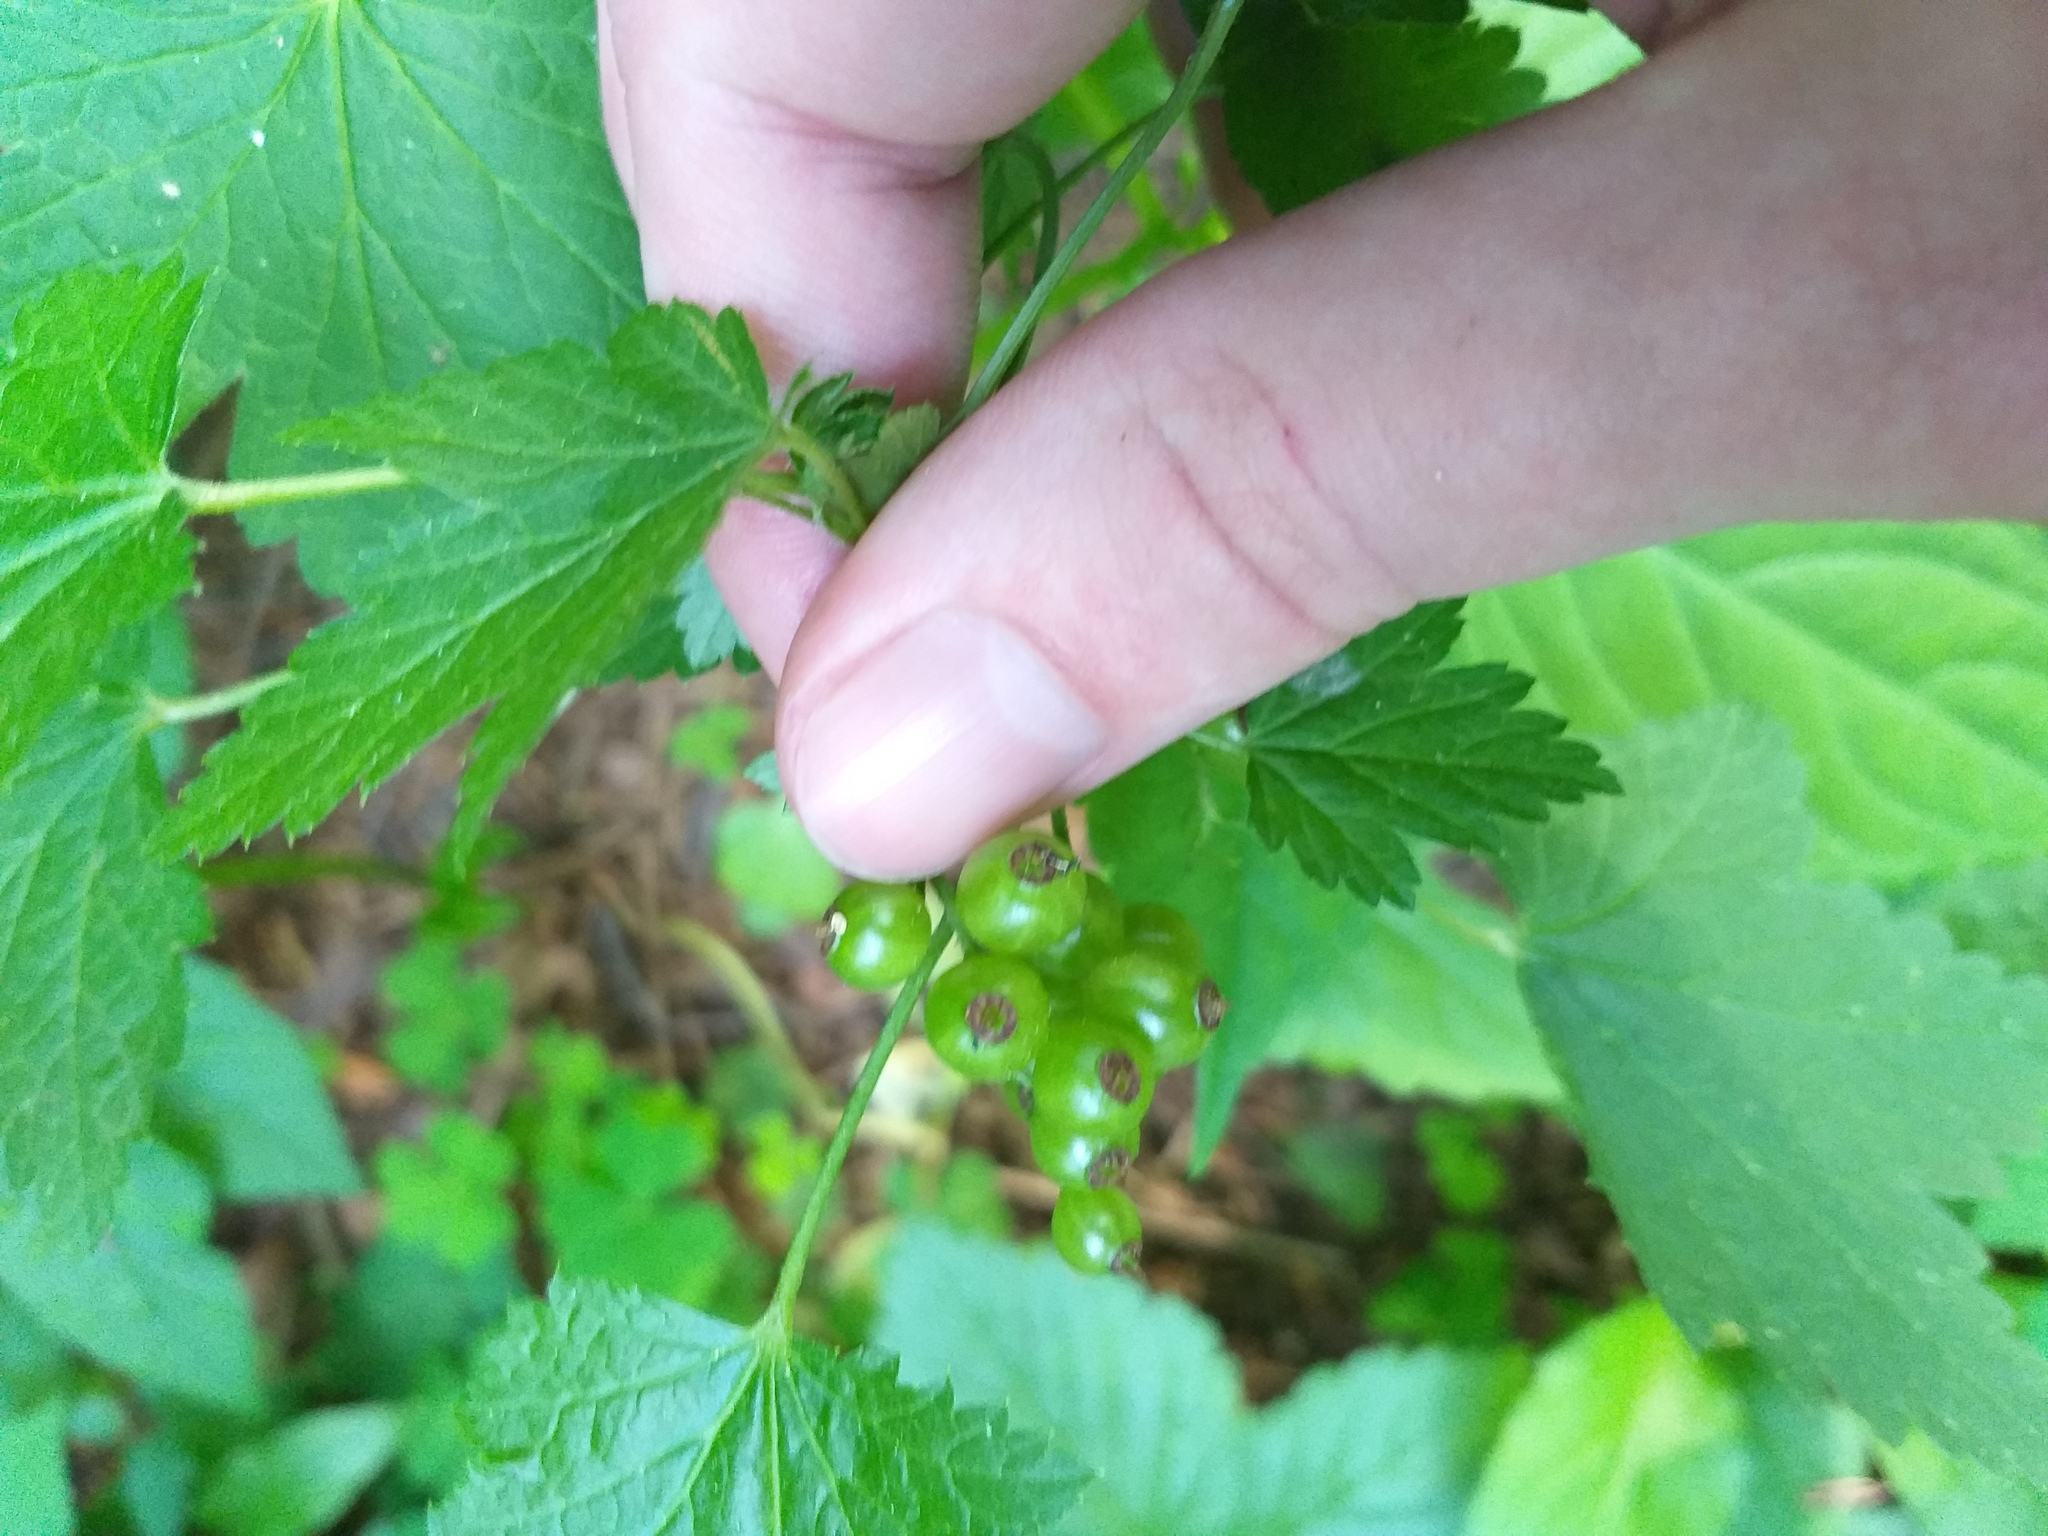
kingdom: Plantae
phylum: Tracheophyta
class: Magnoliopsida
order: Saxifragales
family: Grossulariaceae
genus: Ribes
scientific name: Ribes rubrum
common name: Red currant
